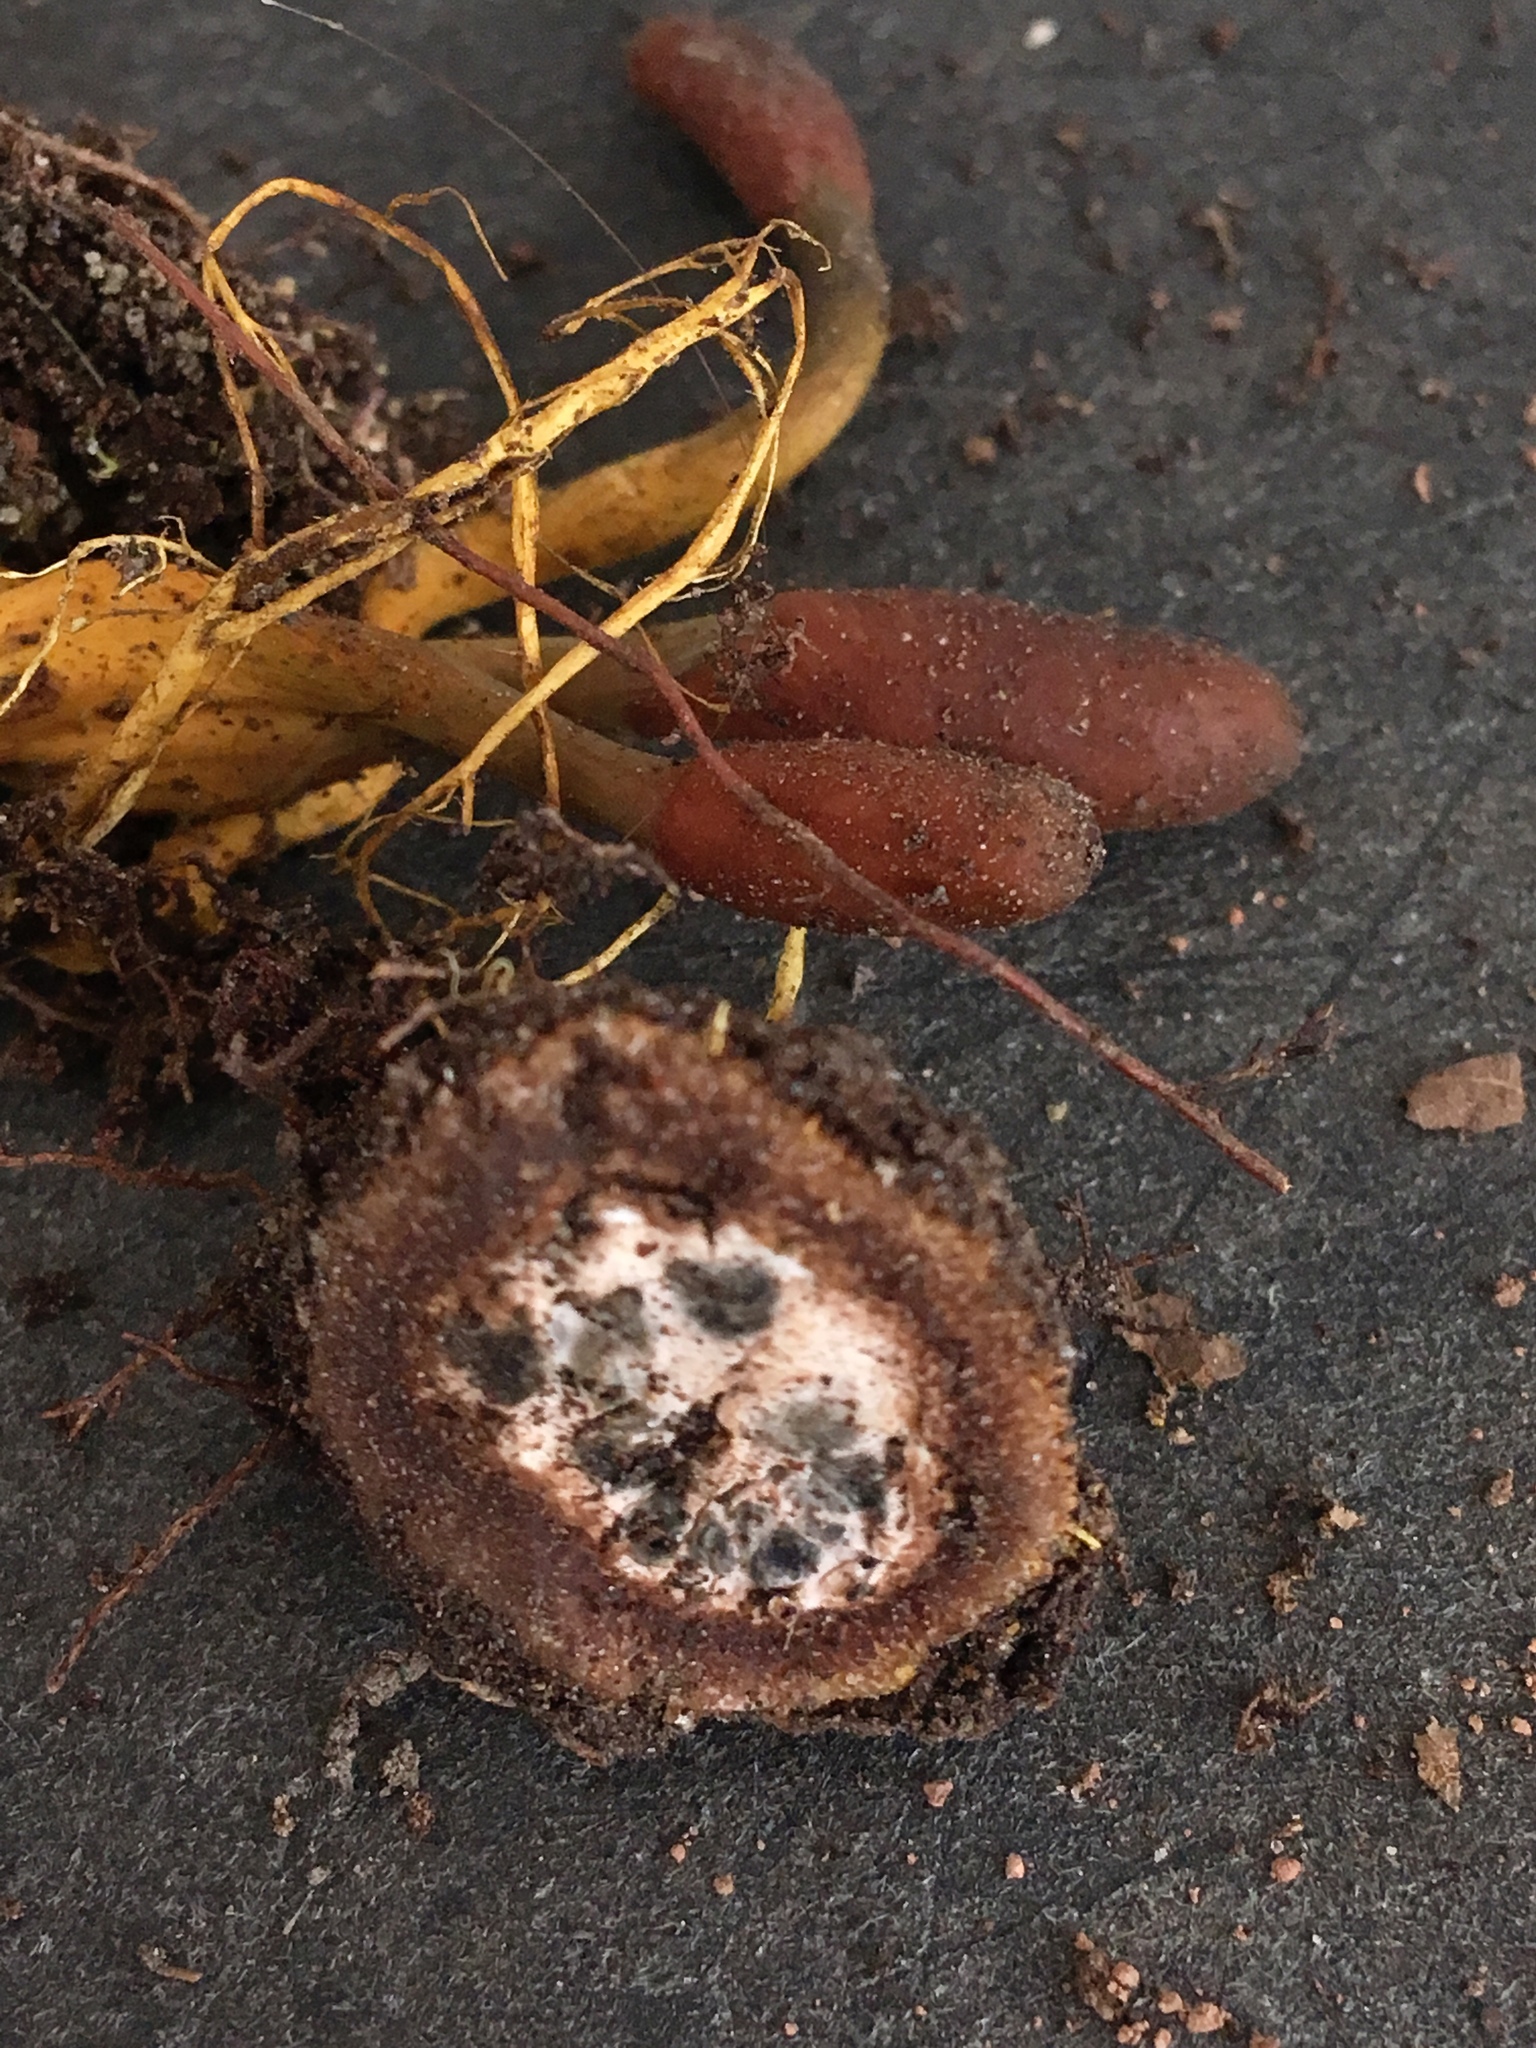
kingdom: Fungi
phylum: Ascomycota
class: Sordariomycetes
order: Hypocreales
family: Ophiocordycipitaceae
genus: Tolypocladium
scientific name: Tolypocladium ophioglossoides
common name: Snaketongue truffleclub
